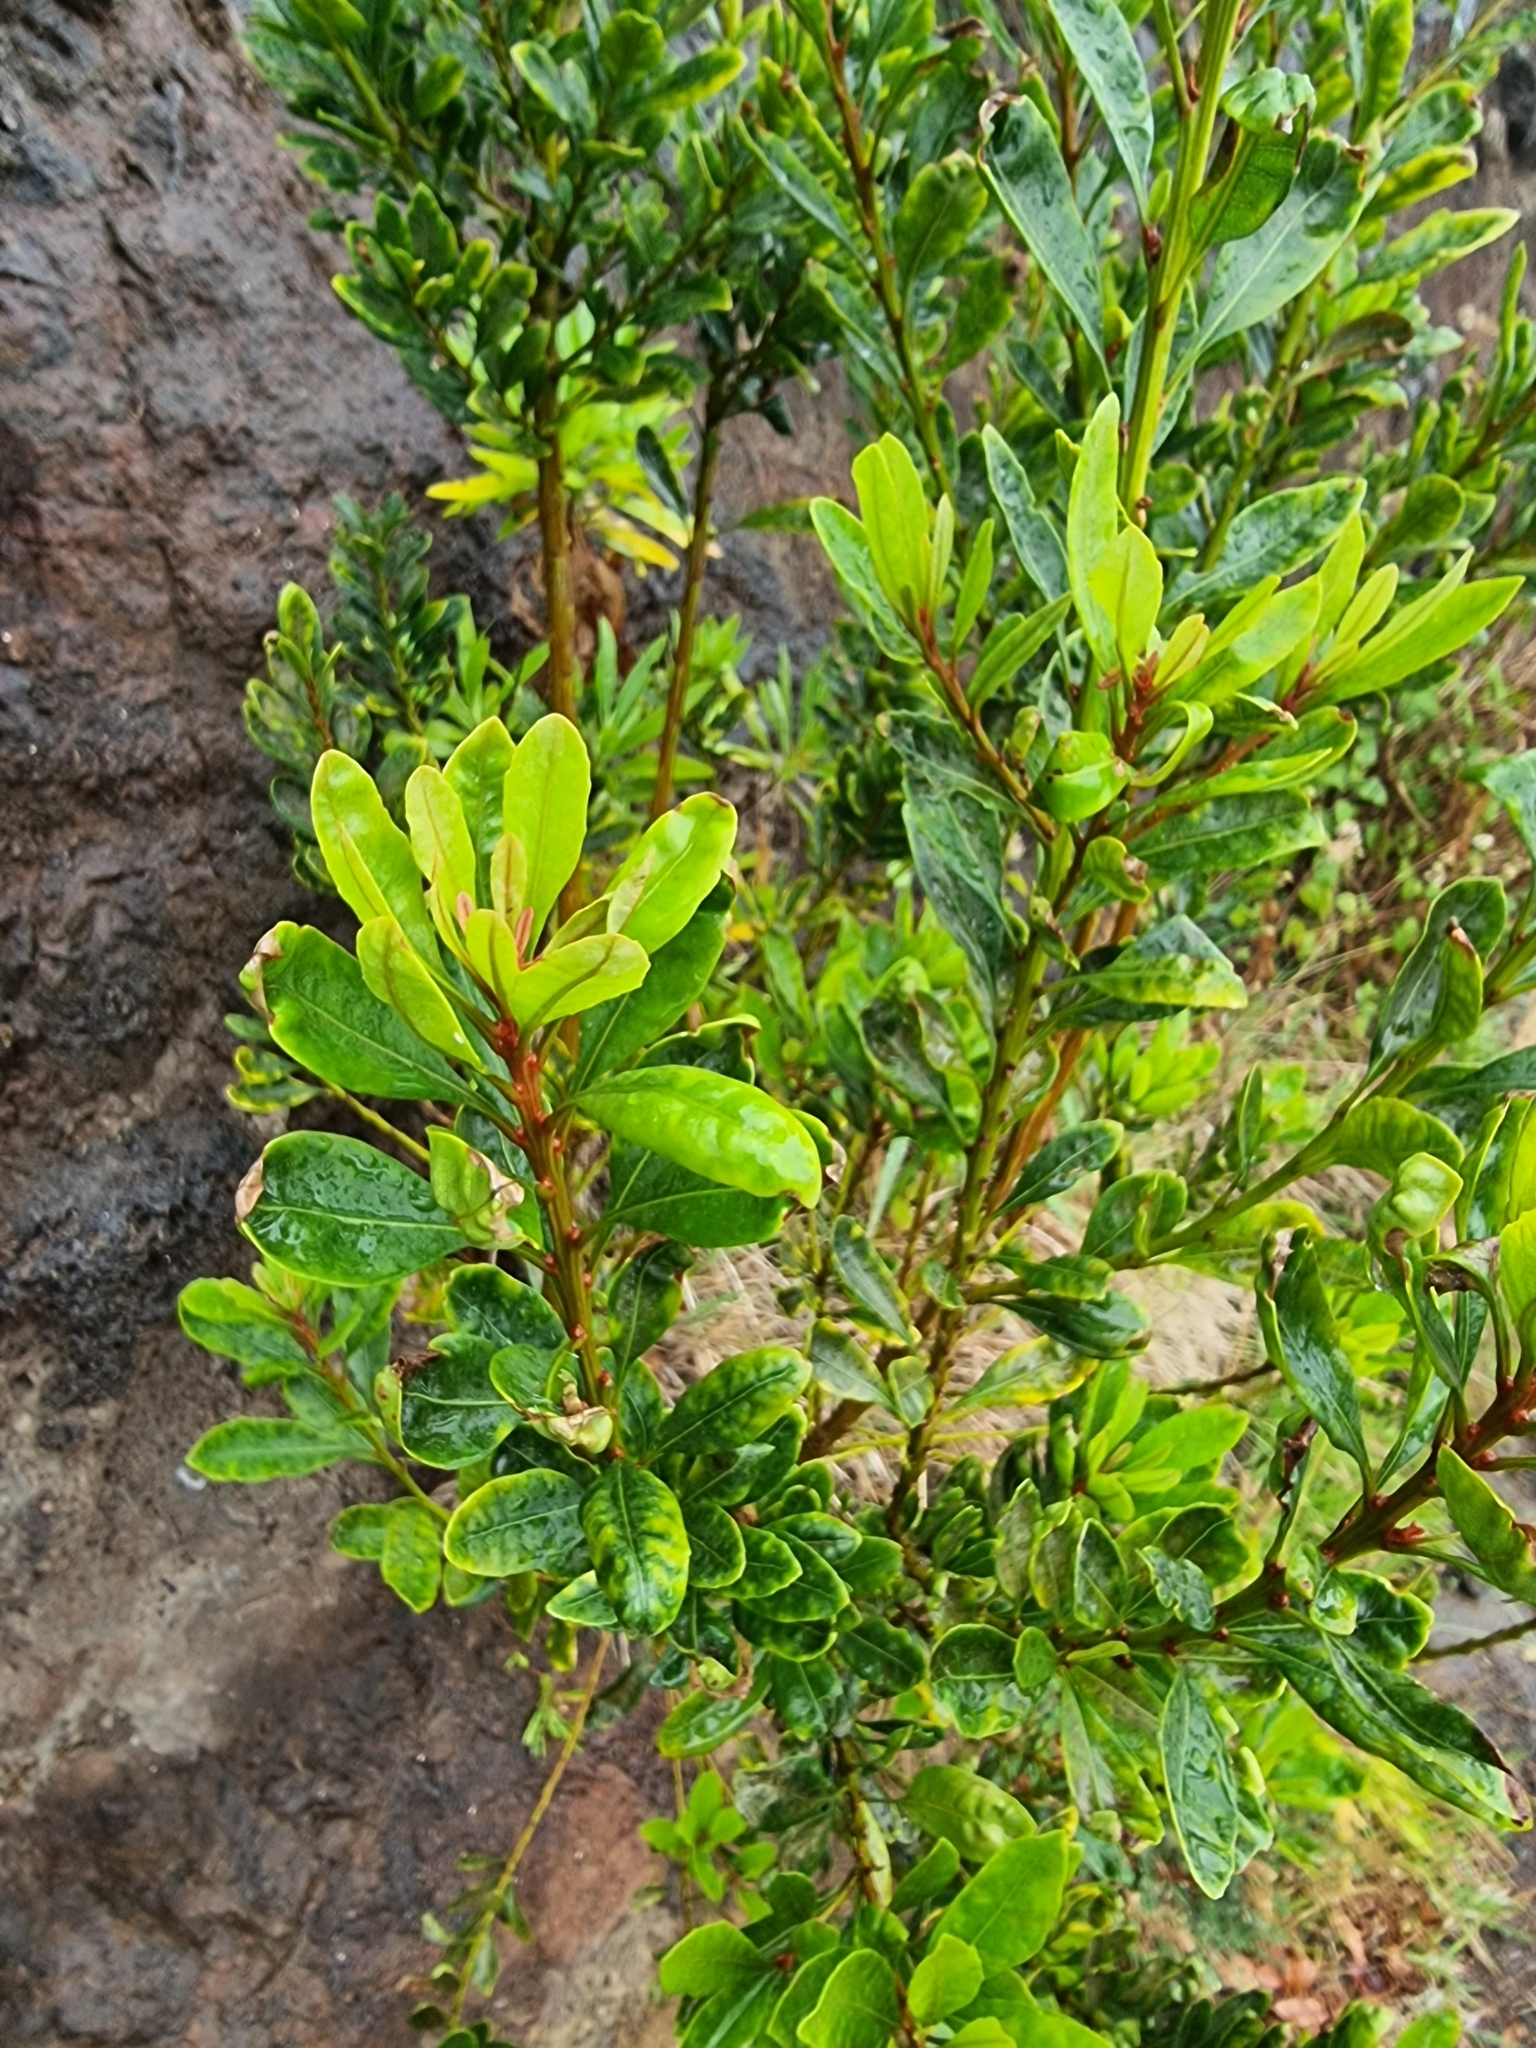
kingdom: Plantae
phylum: Tracheophyta
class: Magnoliopsida
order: Fagales
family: Myricaceae
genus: Morella
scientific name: Morella faya
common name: Firetree
